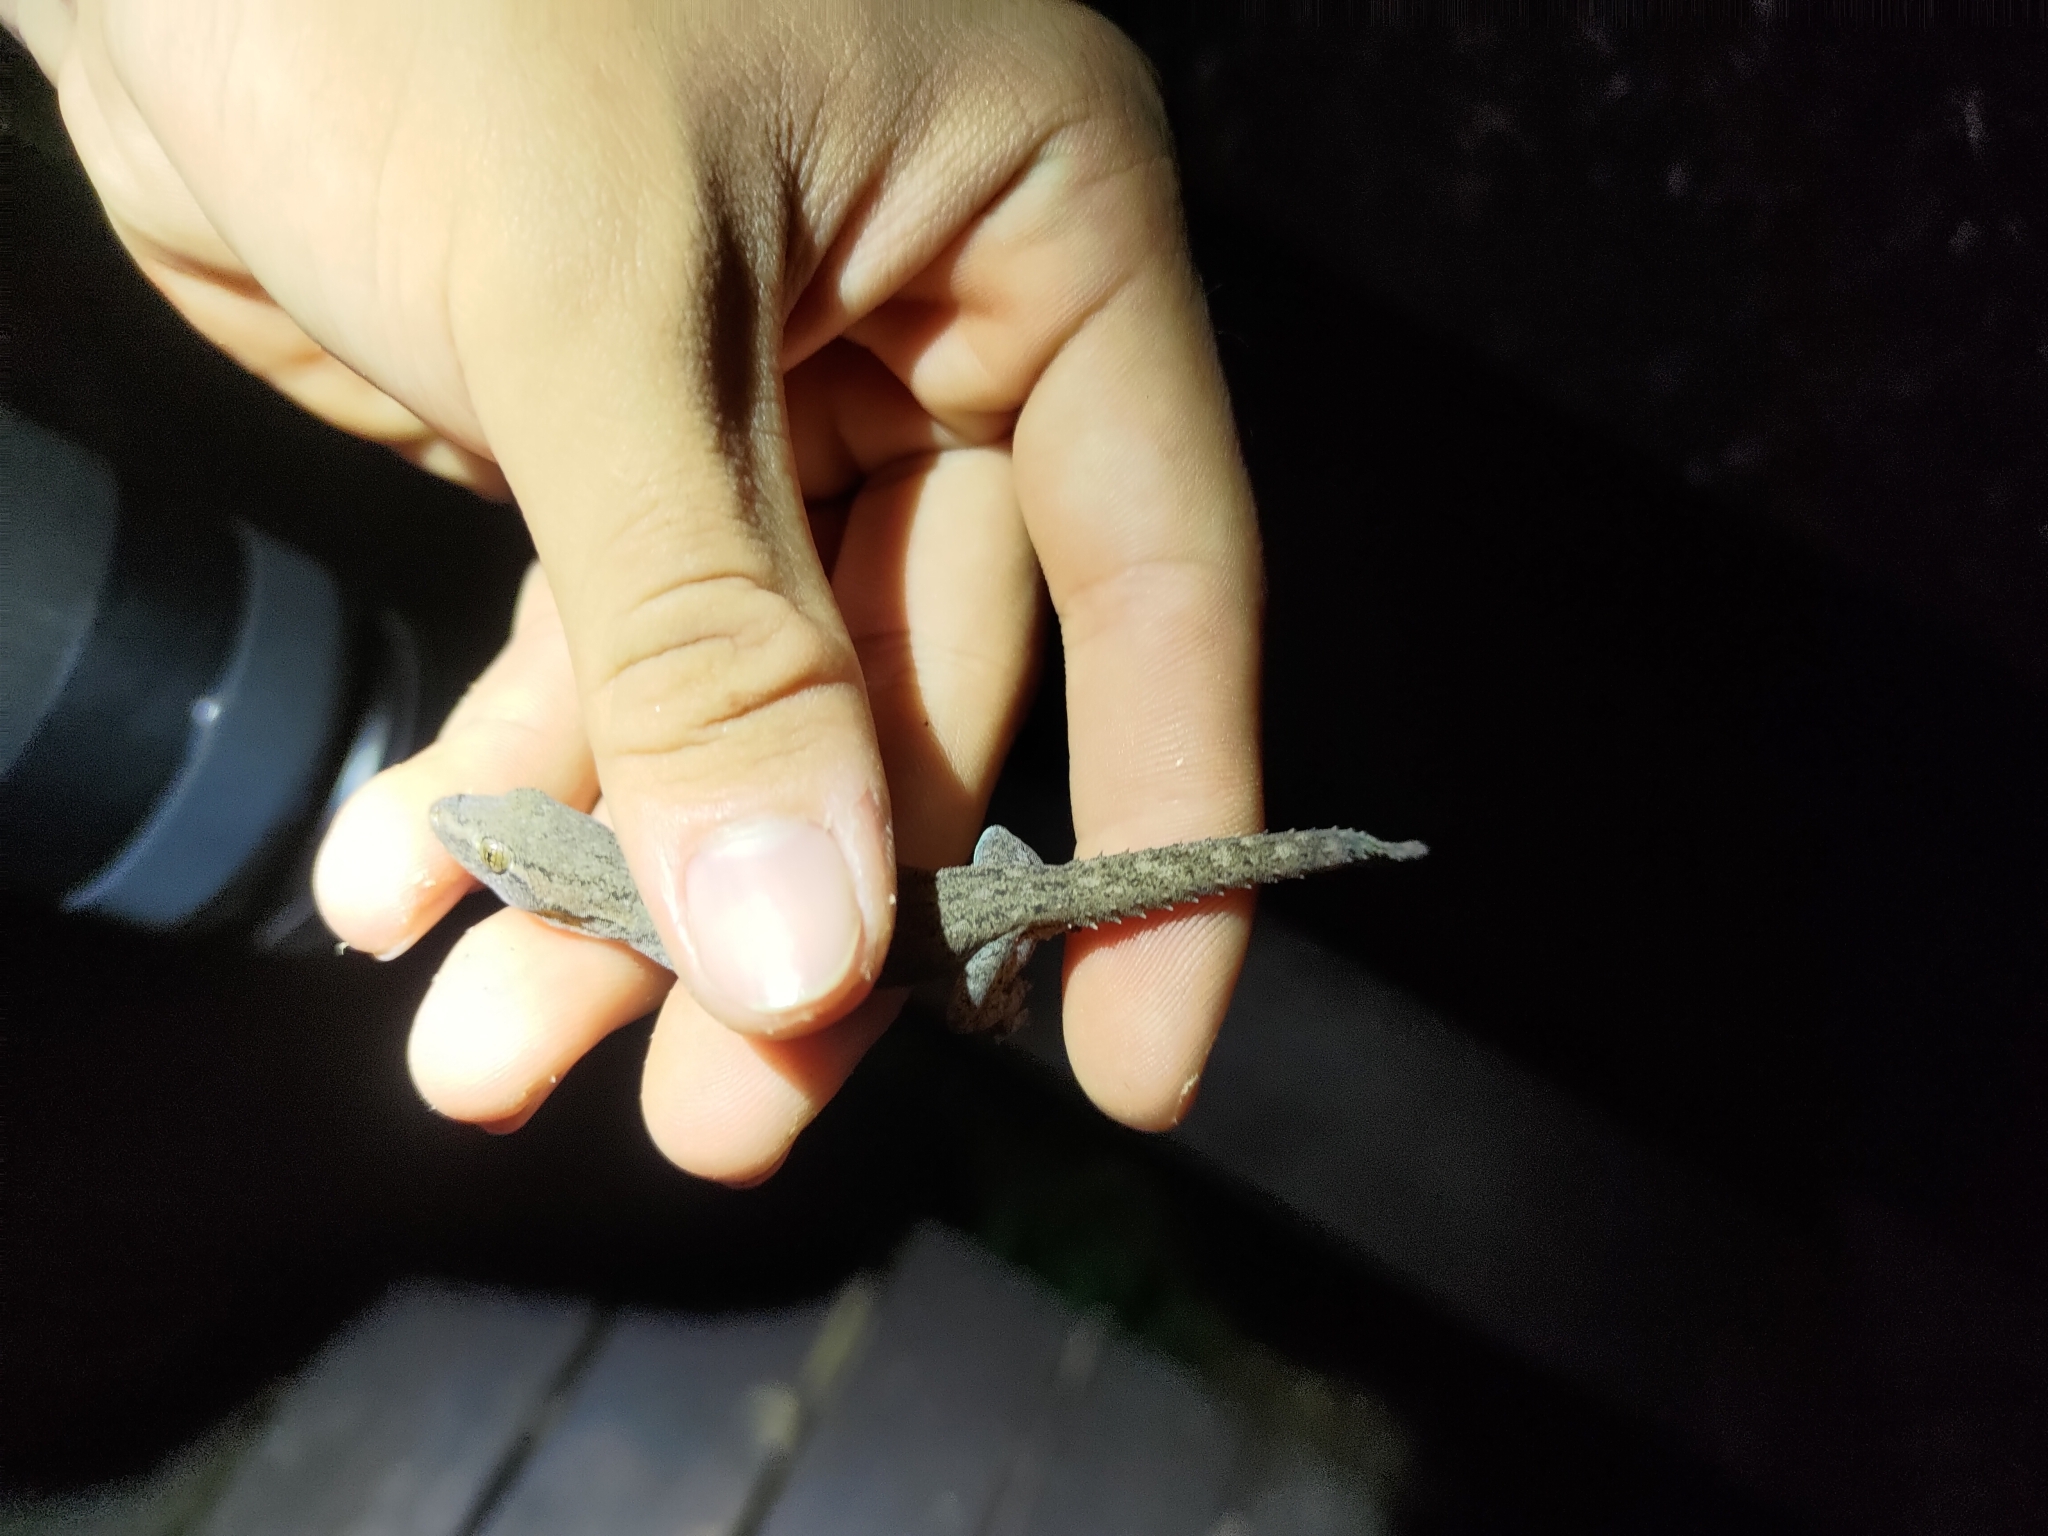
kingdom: Animalia
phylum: Chordata
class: Squamata
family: Gekkonidae
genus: Hemidactylus
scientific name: Hemidactylus frenatus
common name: Common house gecko
